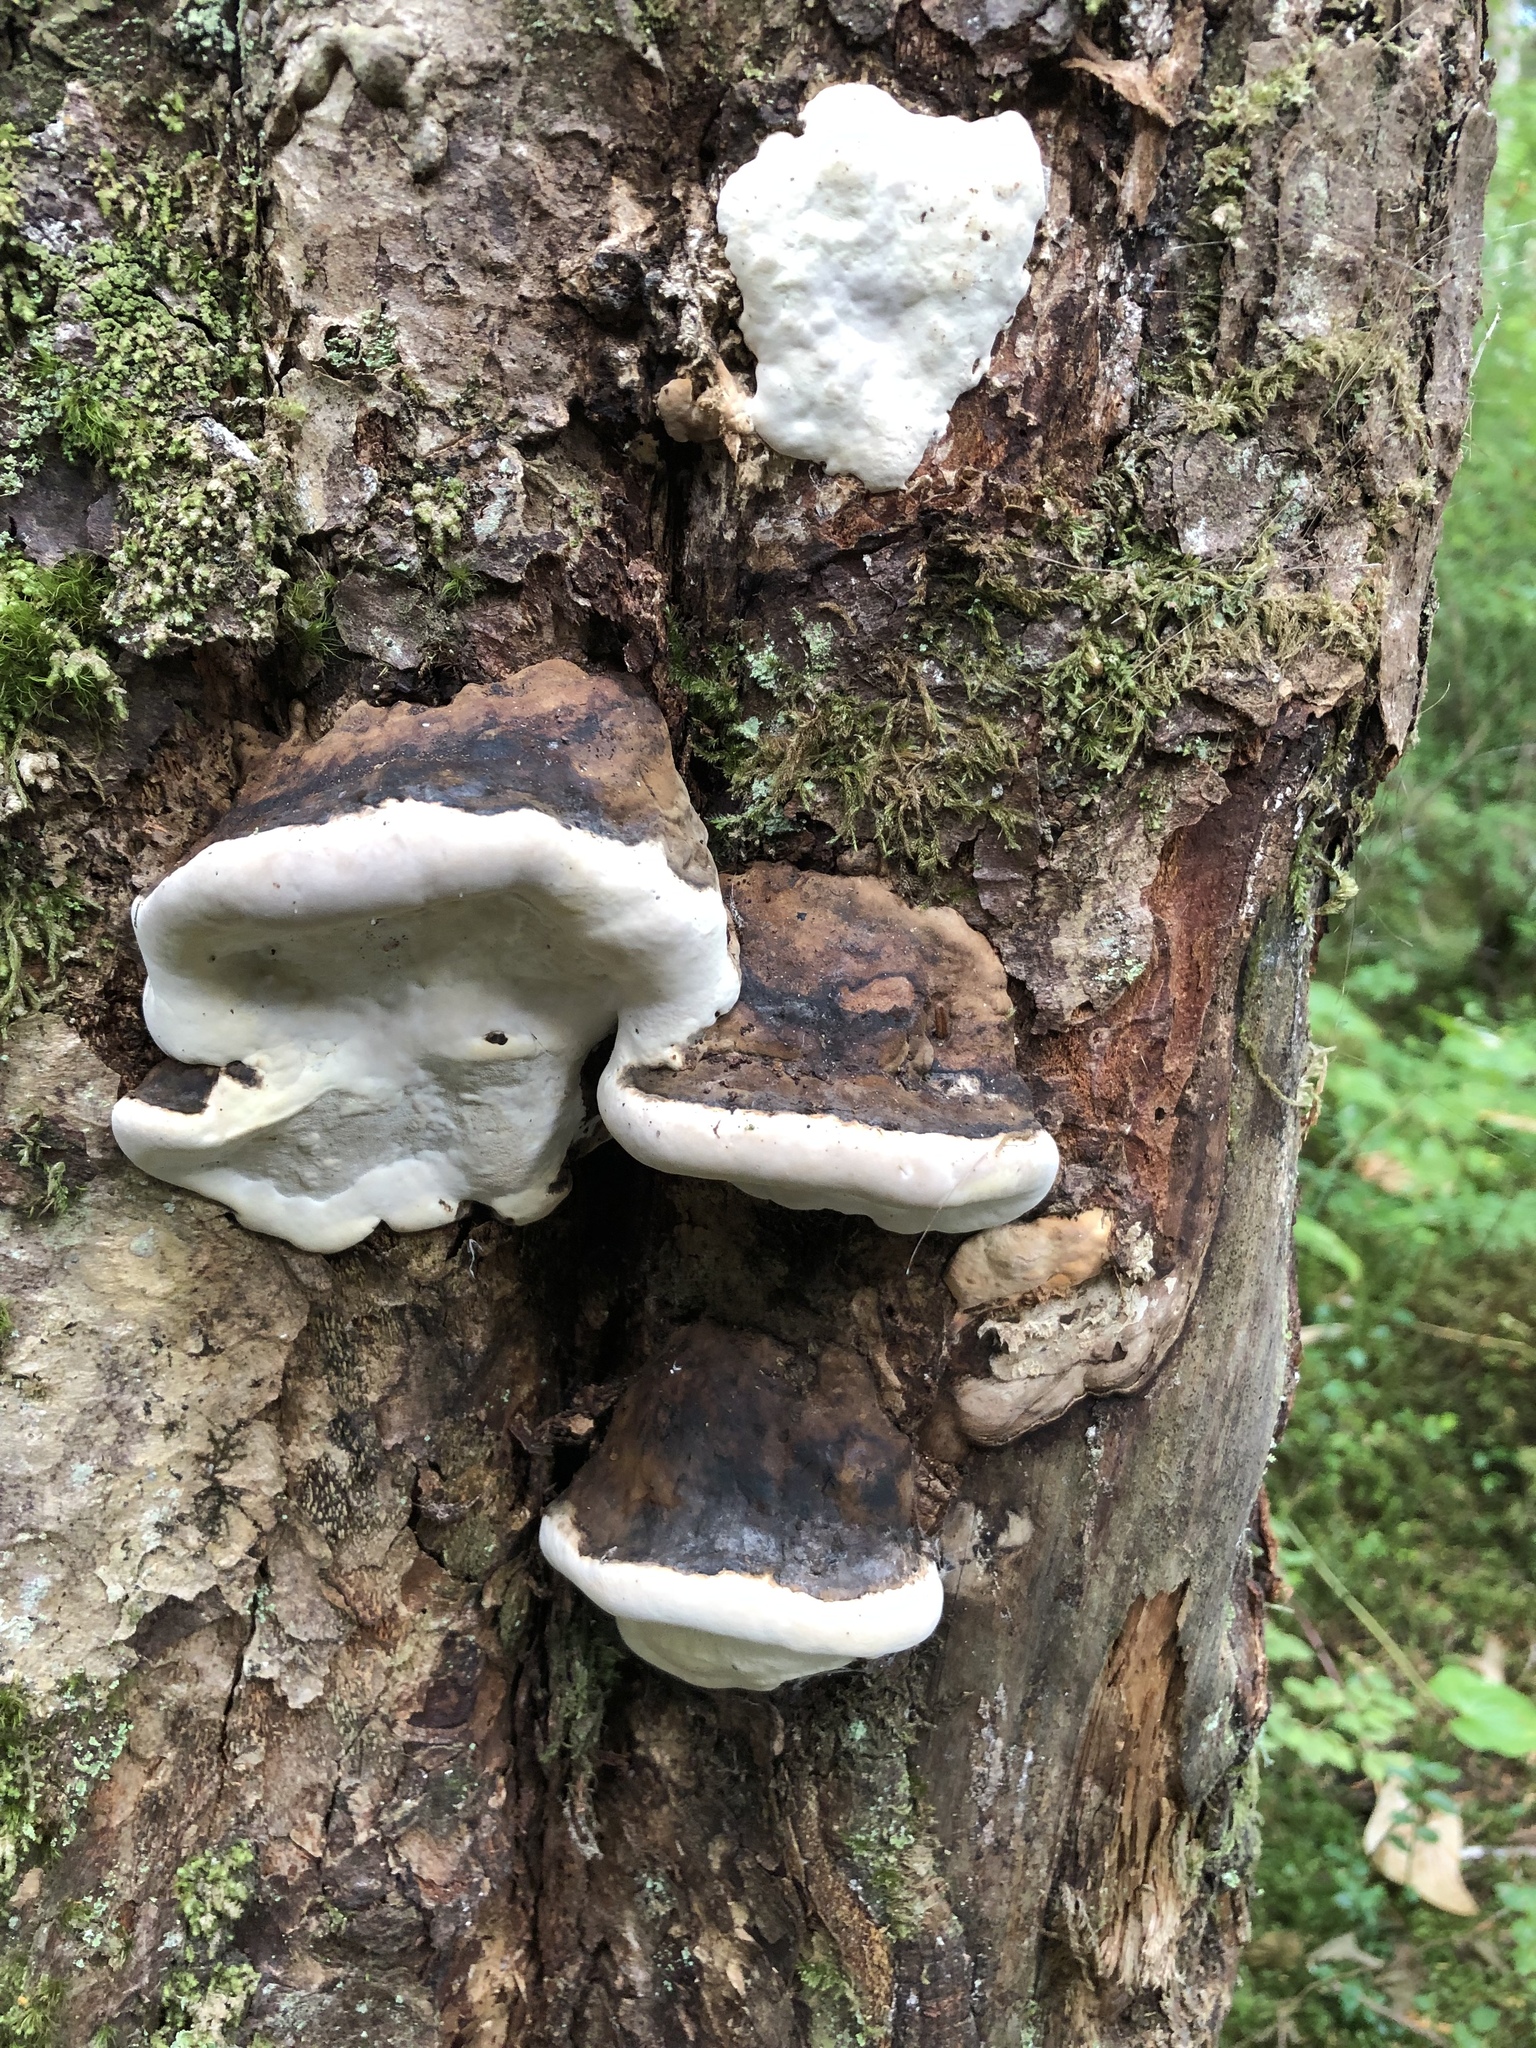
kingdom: Fungi
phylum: Basidiomycota
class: Agaricomycetes
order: Polyporales
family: Fomitopsidaceae
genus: Fomitopsis
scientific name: Fomitopsis ochracea
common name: American brown fomitopsis
